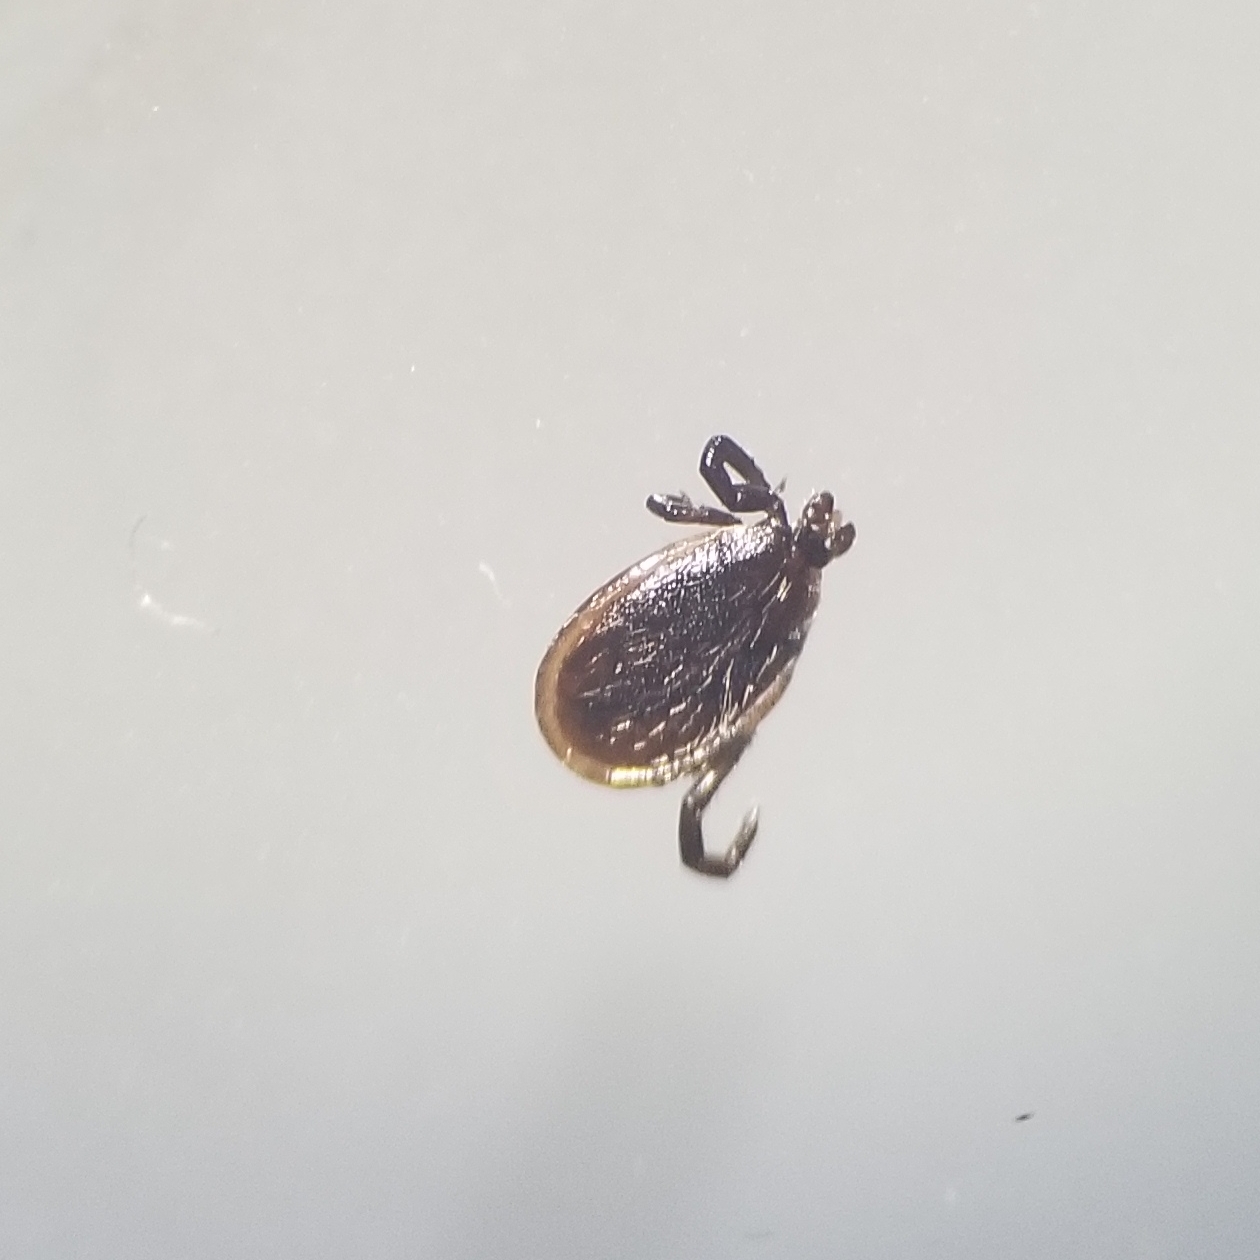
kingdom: Animalia
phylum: Arthropoda
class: Arachnida
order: Ixodida
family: Ixodidae
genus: Ixodes
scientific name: Ixodes scapularis
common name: Black legged tick
